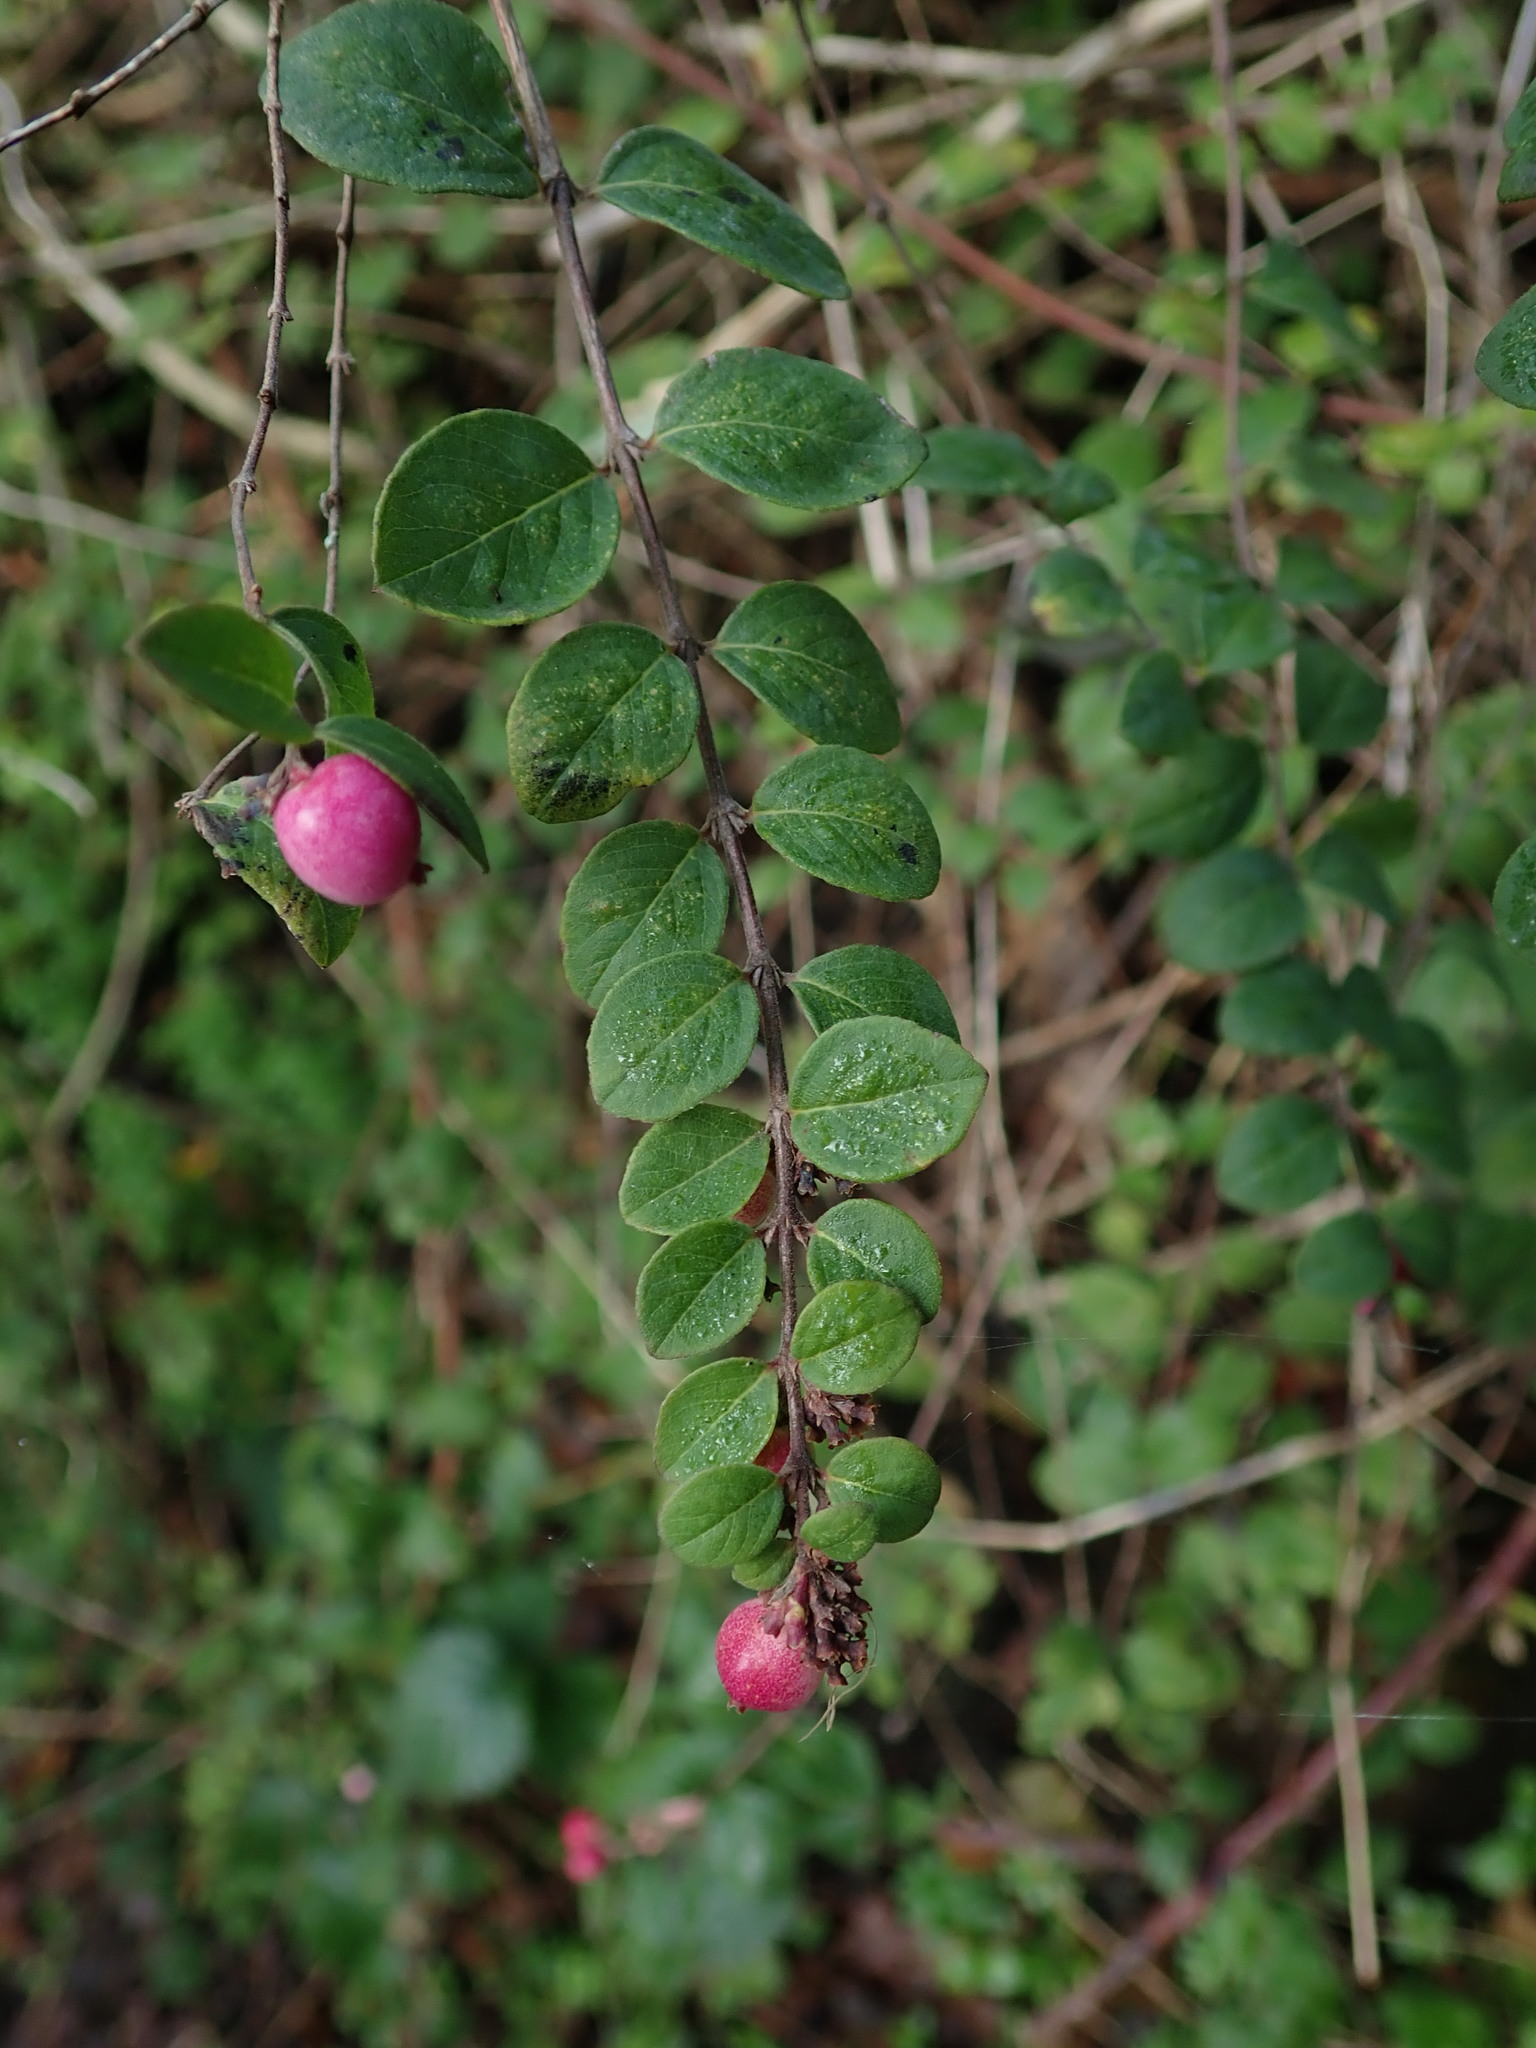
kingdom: Plantae
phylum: Tracheophyta
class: Magnoliopsida
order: Dipsacales
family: Caprifoliaceae
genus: Symphoricarpos
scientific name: Symphoricarpos chenaultii
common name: Hybrid coralberry
